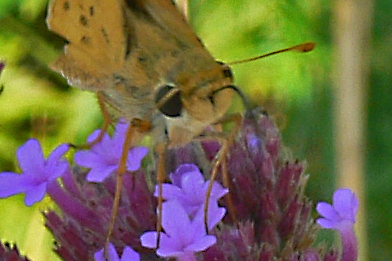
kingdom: Animalia
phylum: Arthropoda
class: Insecta
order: Lepidoptera
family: Hesperiidae
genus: Hylephila
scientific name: Hylephila phyleus
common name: Fiery skipper
